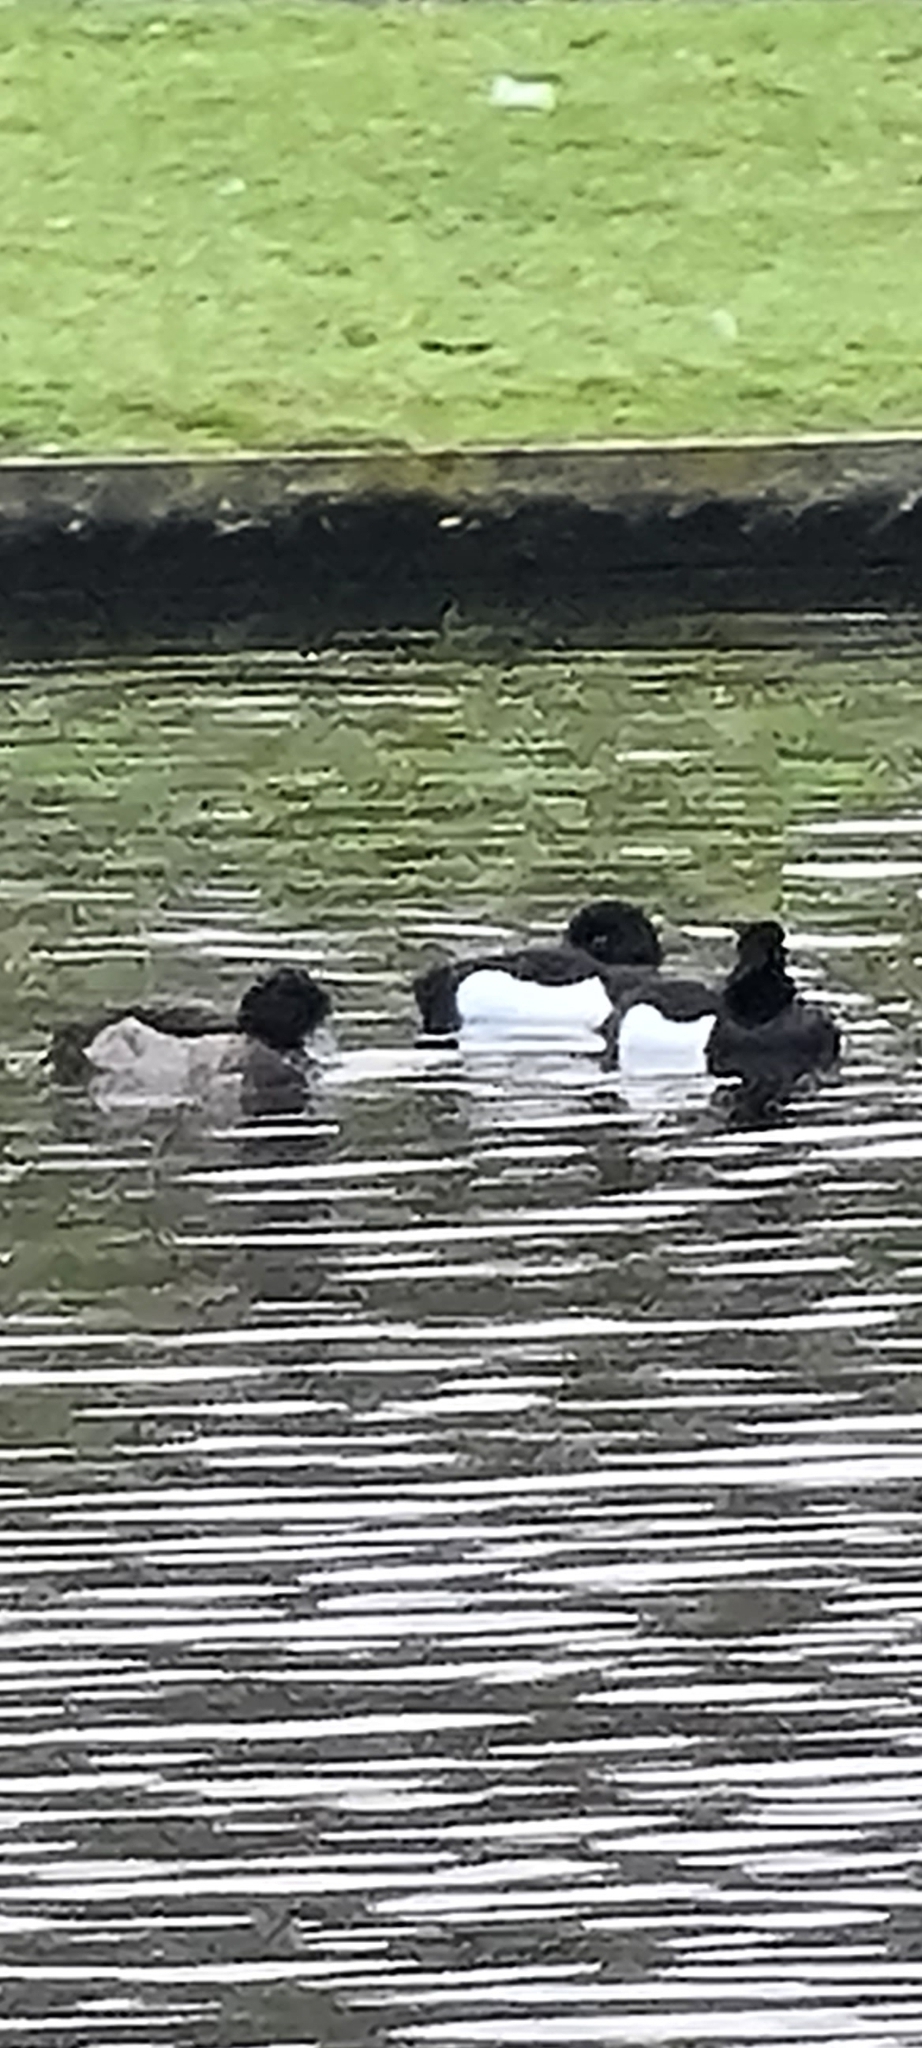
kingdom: Animalia
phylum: Chordata
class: Aves
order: Anseriformes
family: Anatidae
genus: Aythya
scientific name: Aythya fuligula
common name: Tufted duck
